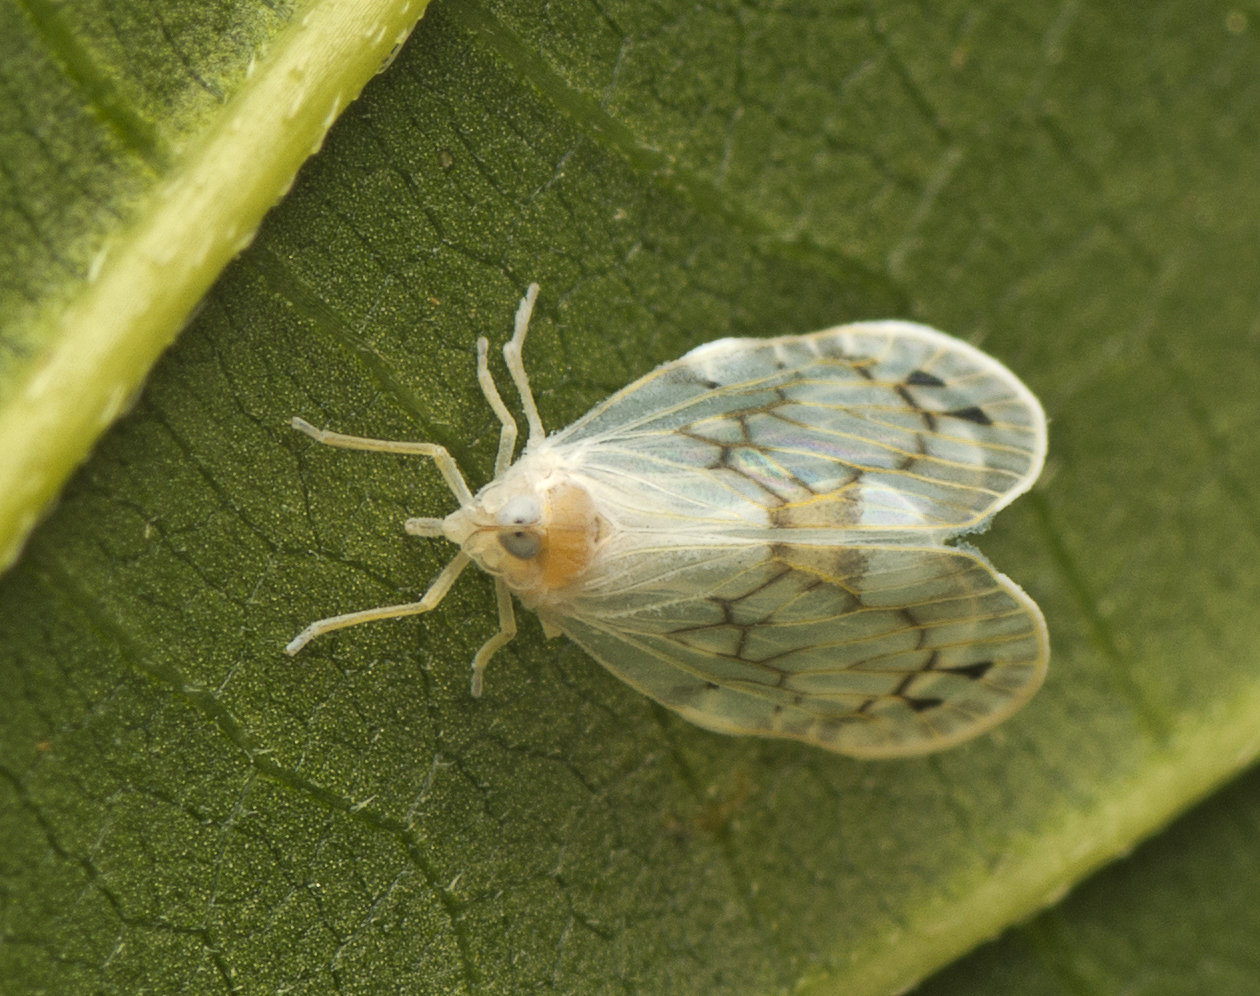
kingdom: Animalia
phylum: Arthropoda
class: Insecta
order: Hemiptera
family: Derbidae
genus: Levu
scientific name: Levu vitiensis
